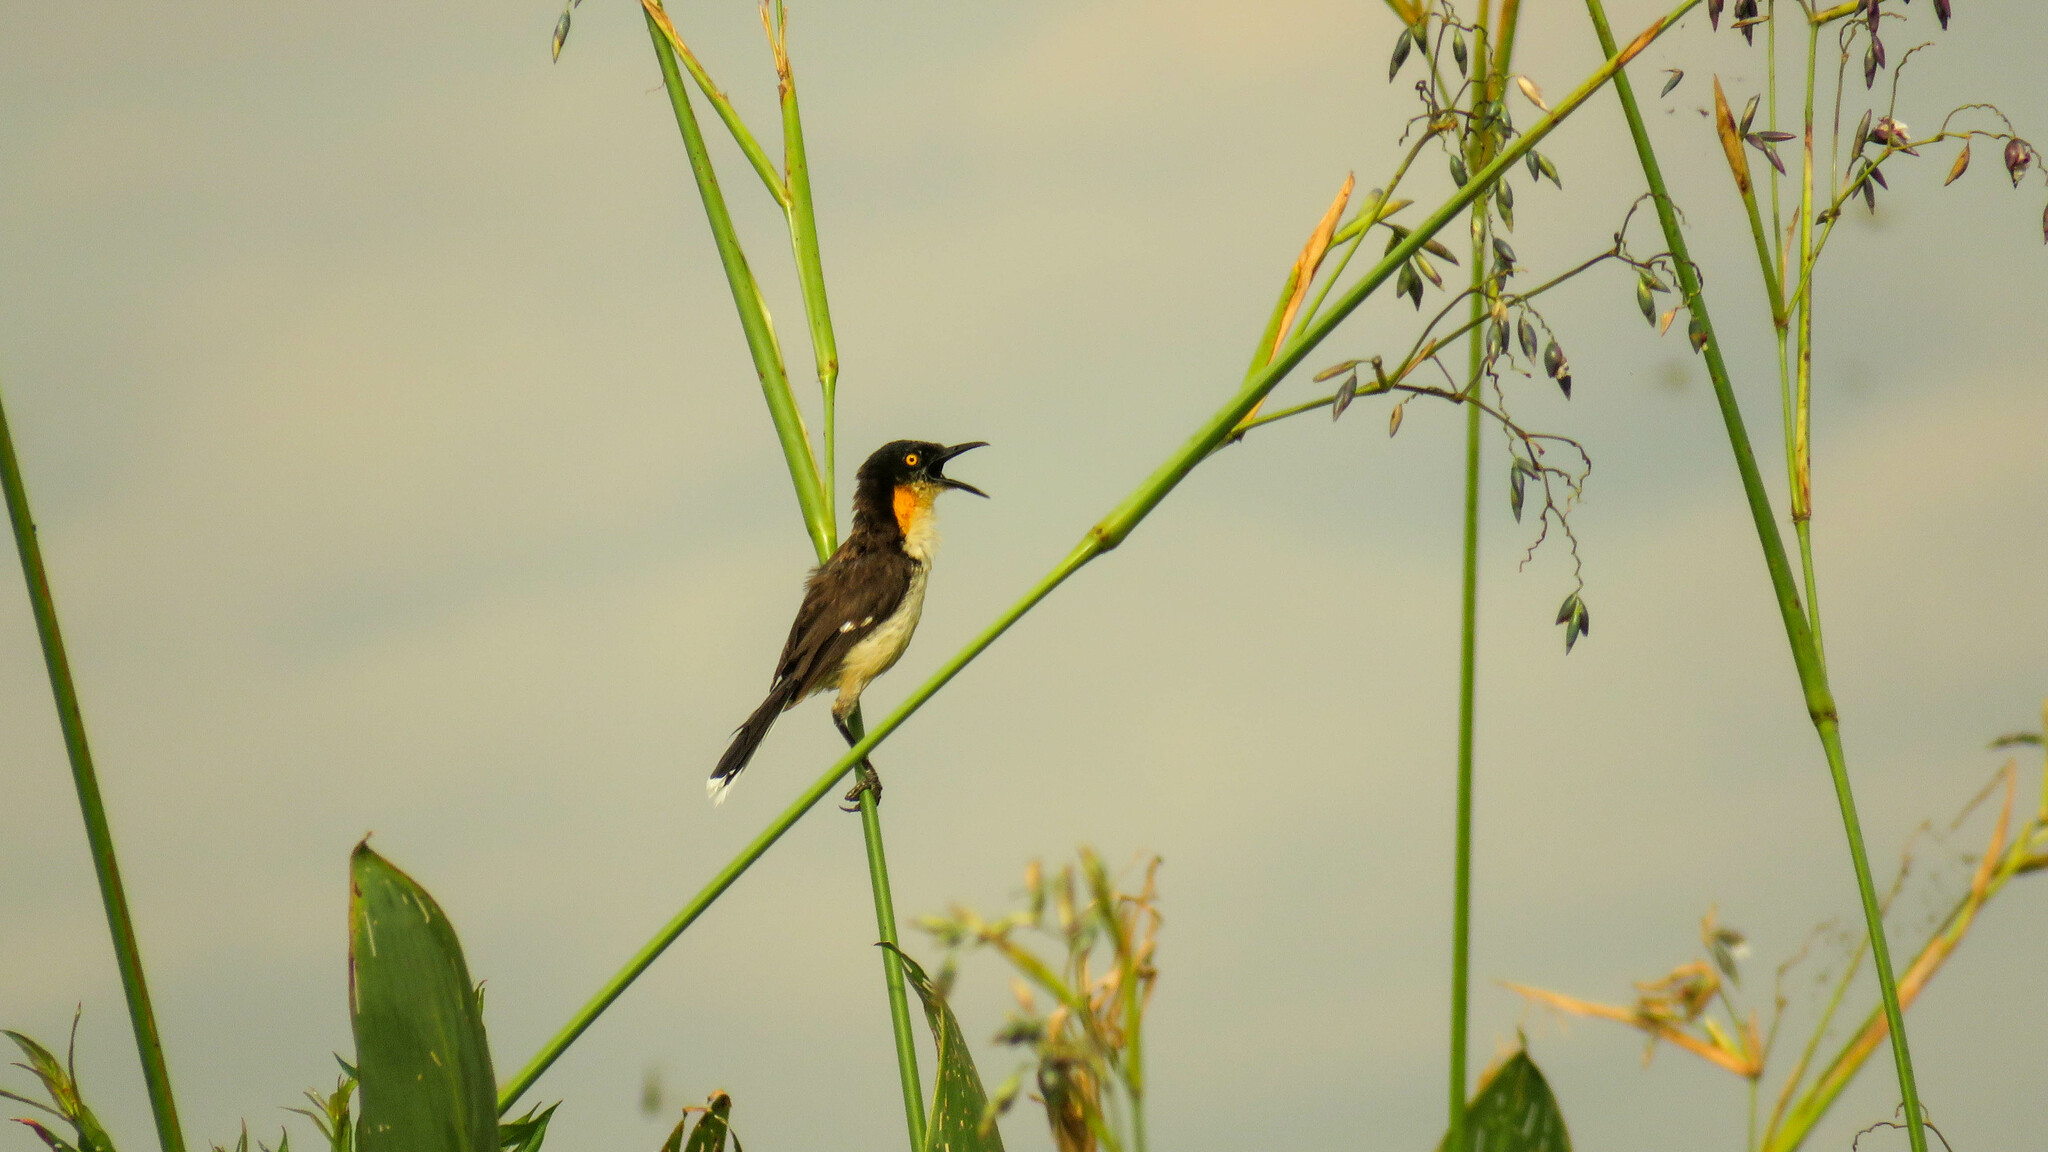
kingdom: Animalia
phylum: Chordata
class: Aves
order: Passeriformes
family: Donacobiidae
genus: Donacobius
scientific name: Donacobius atricapilla
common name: Black-capped donacobius
